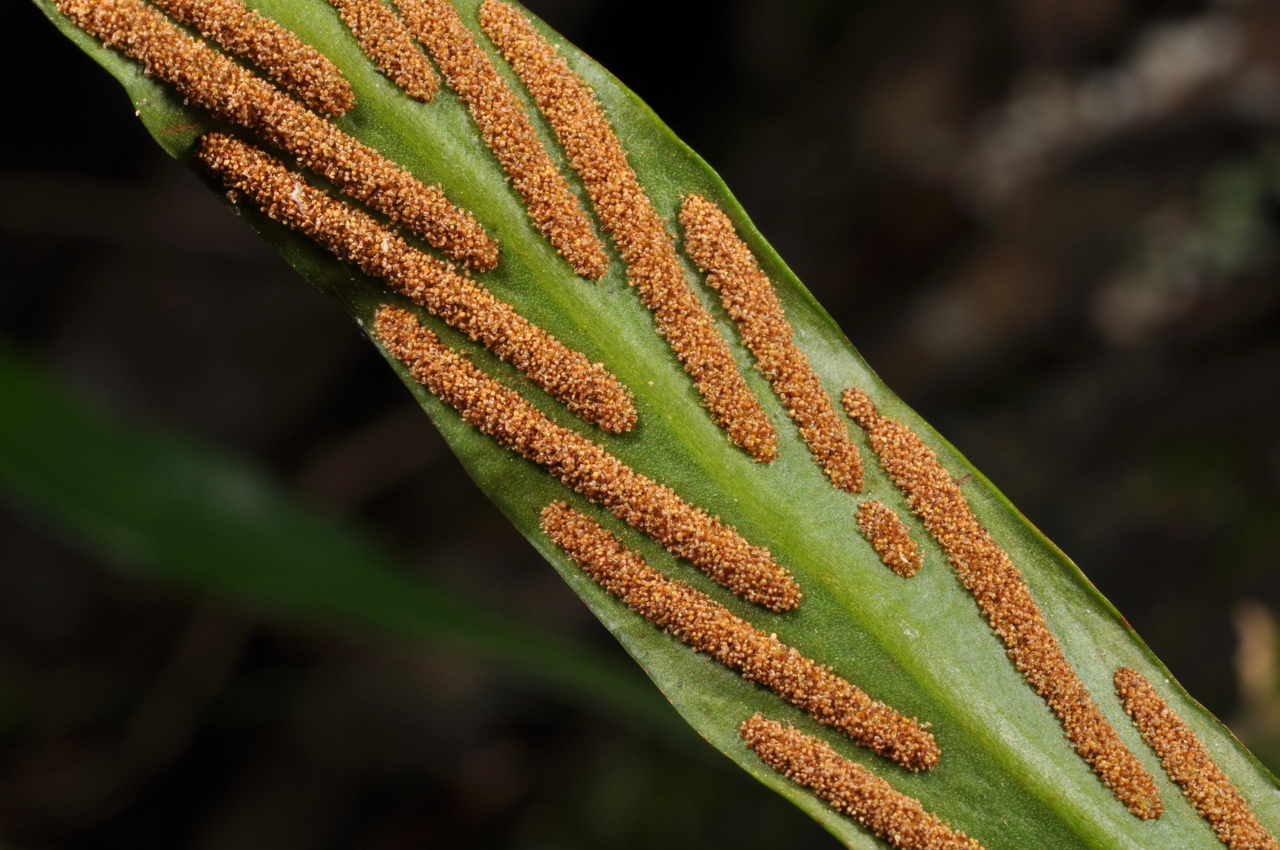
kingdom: Plantae
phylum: Tracheophyta
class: Polypodiopsida
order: Polypodiales
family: Polypodiaceae
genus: Loxogramme
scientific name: Loxogramme salicifolia
